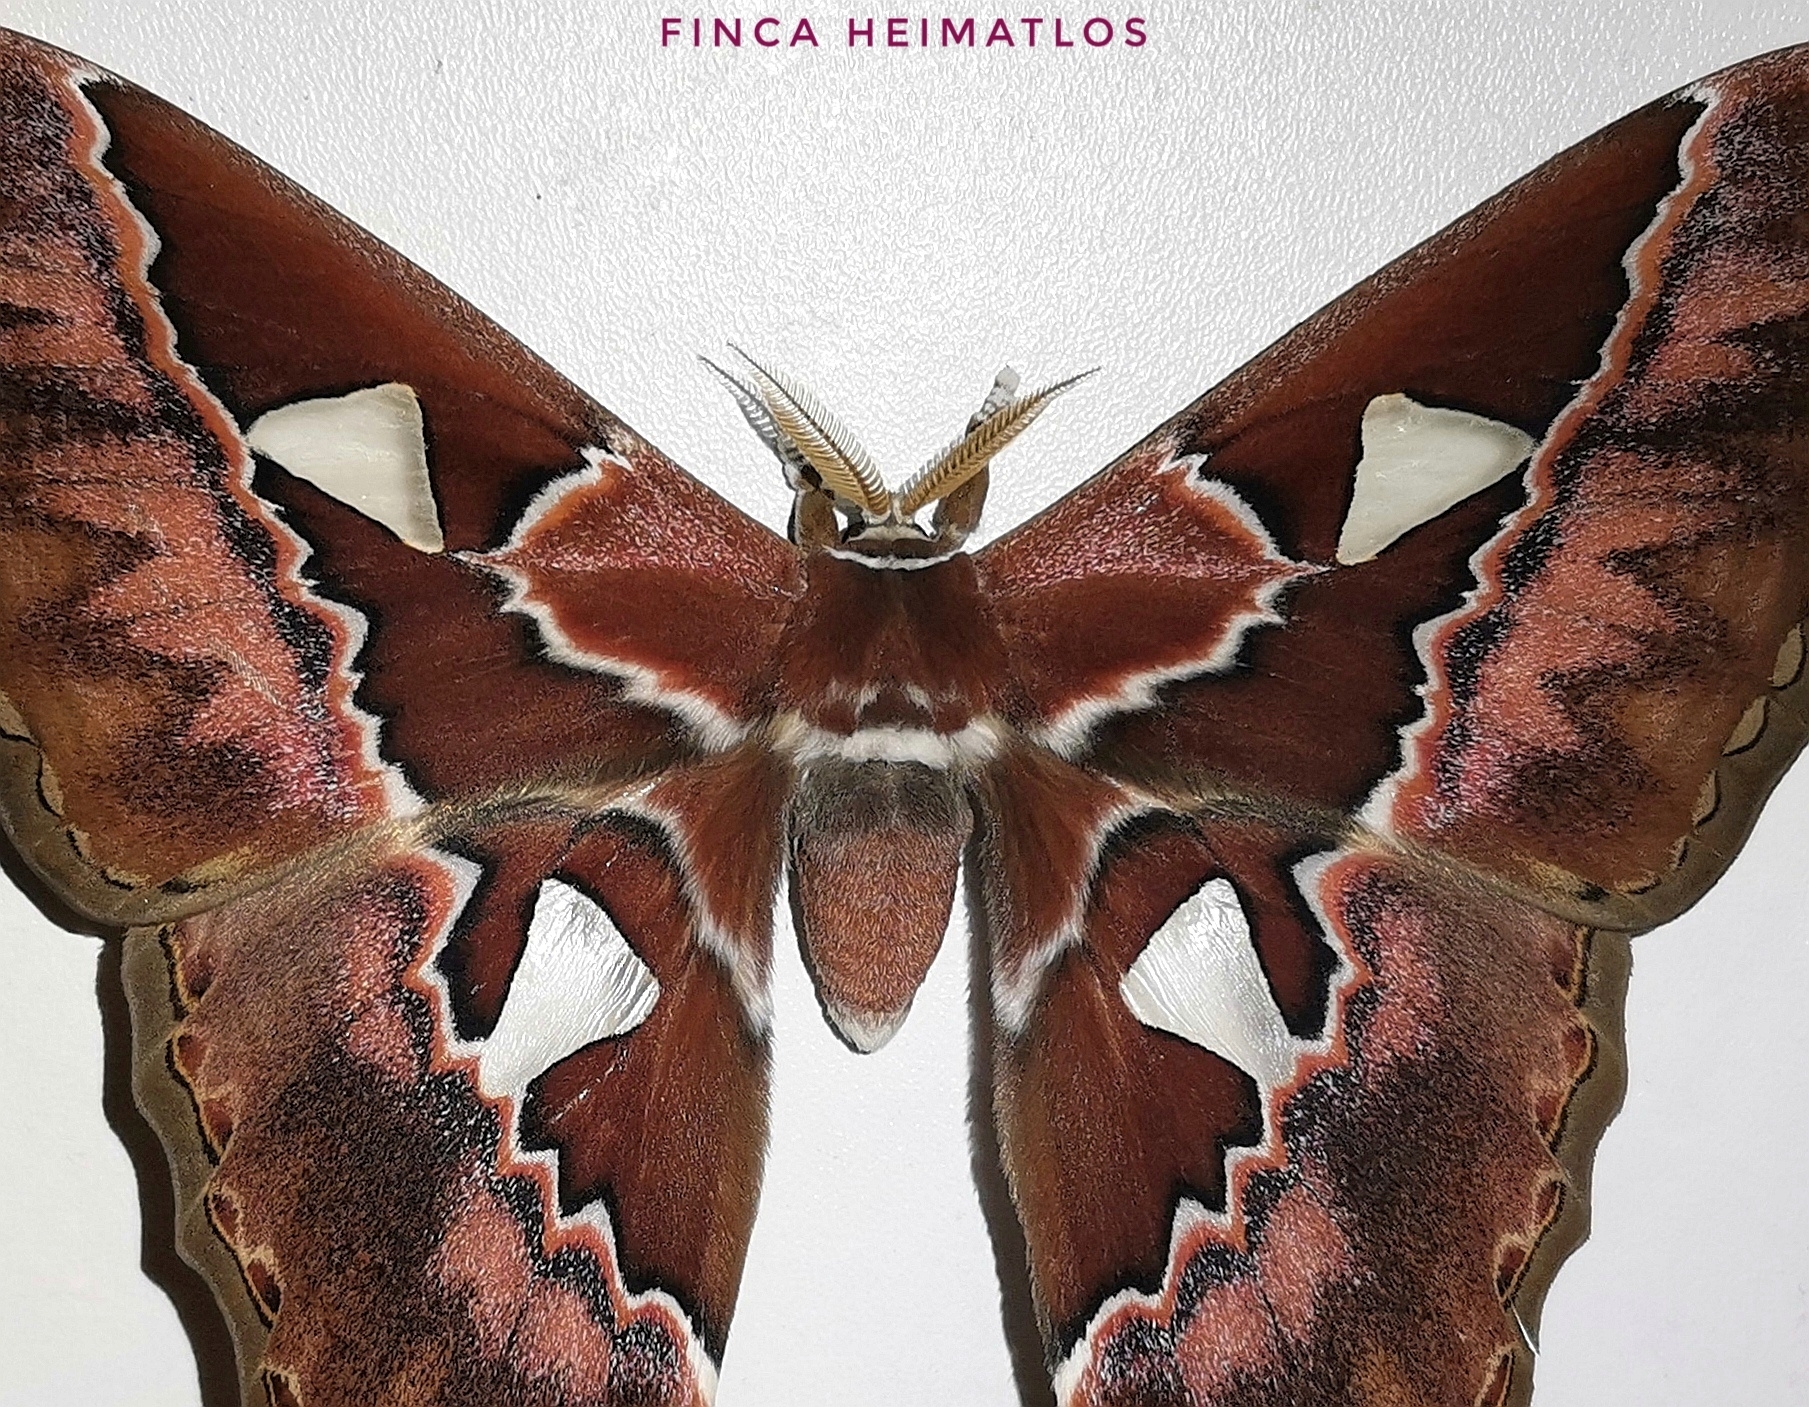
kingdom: Animalia
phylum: Arthropoda
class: Insecta
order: Lepidoptera
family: Saturniidae
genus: Rothschildia
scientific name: Rothschildia aurota
